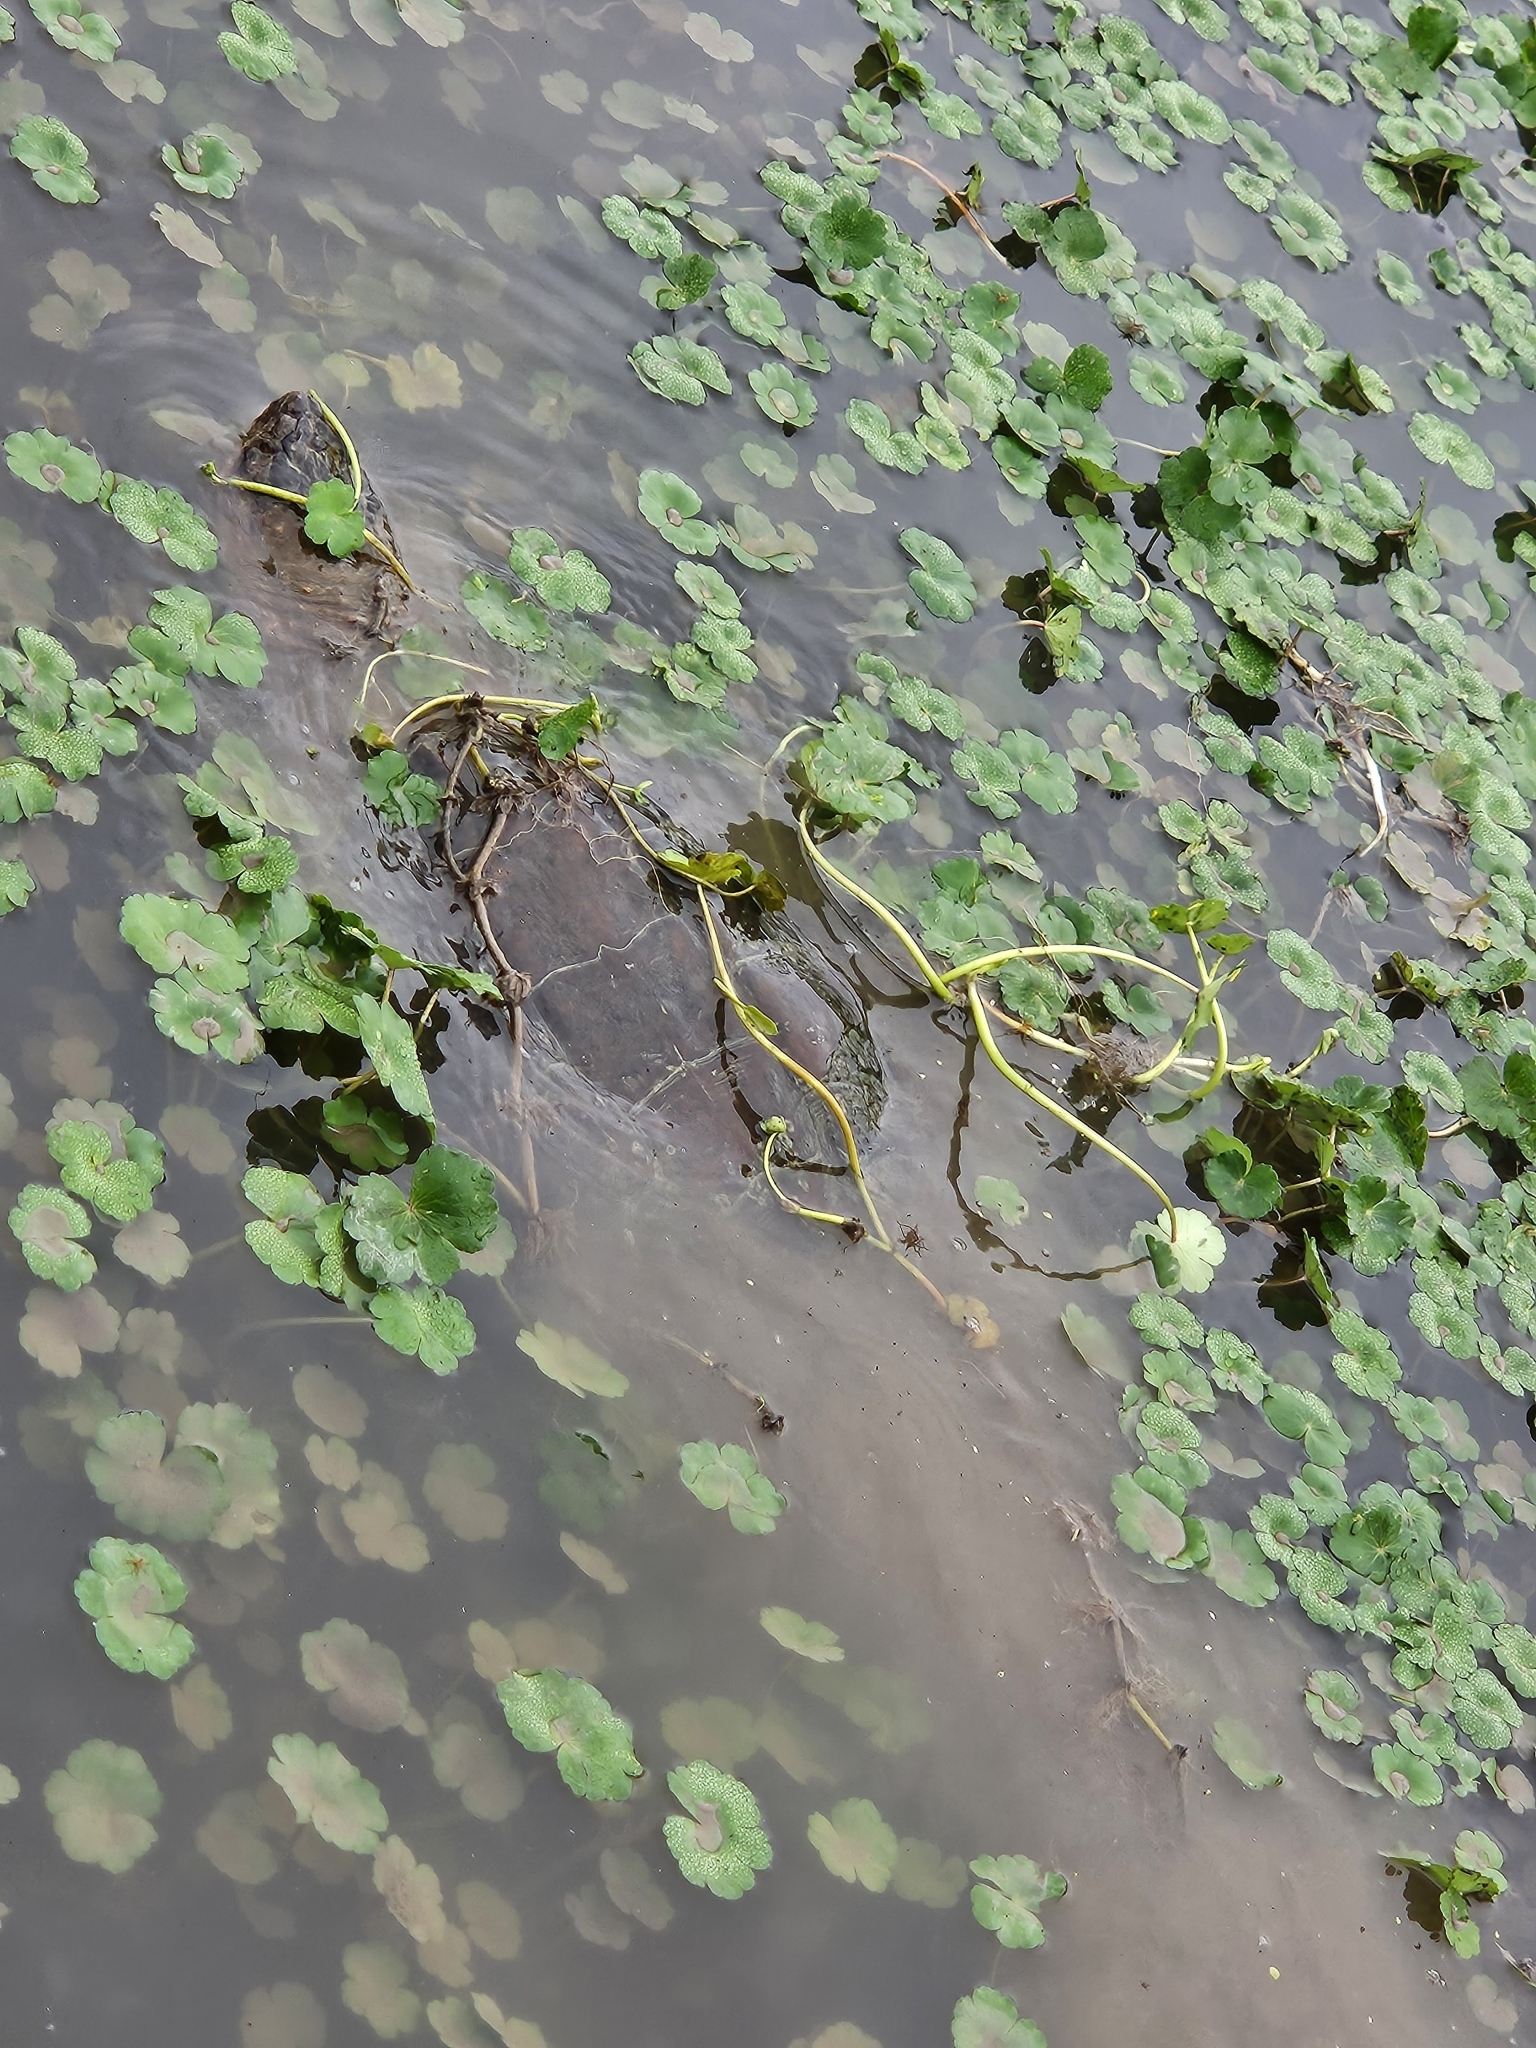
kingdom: Animalia
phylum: Chordata
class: Testudines
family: Chelydridae
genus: Chelydra
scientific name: Chelydra serpentina
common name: Common snapping turtle
